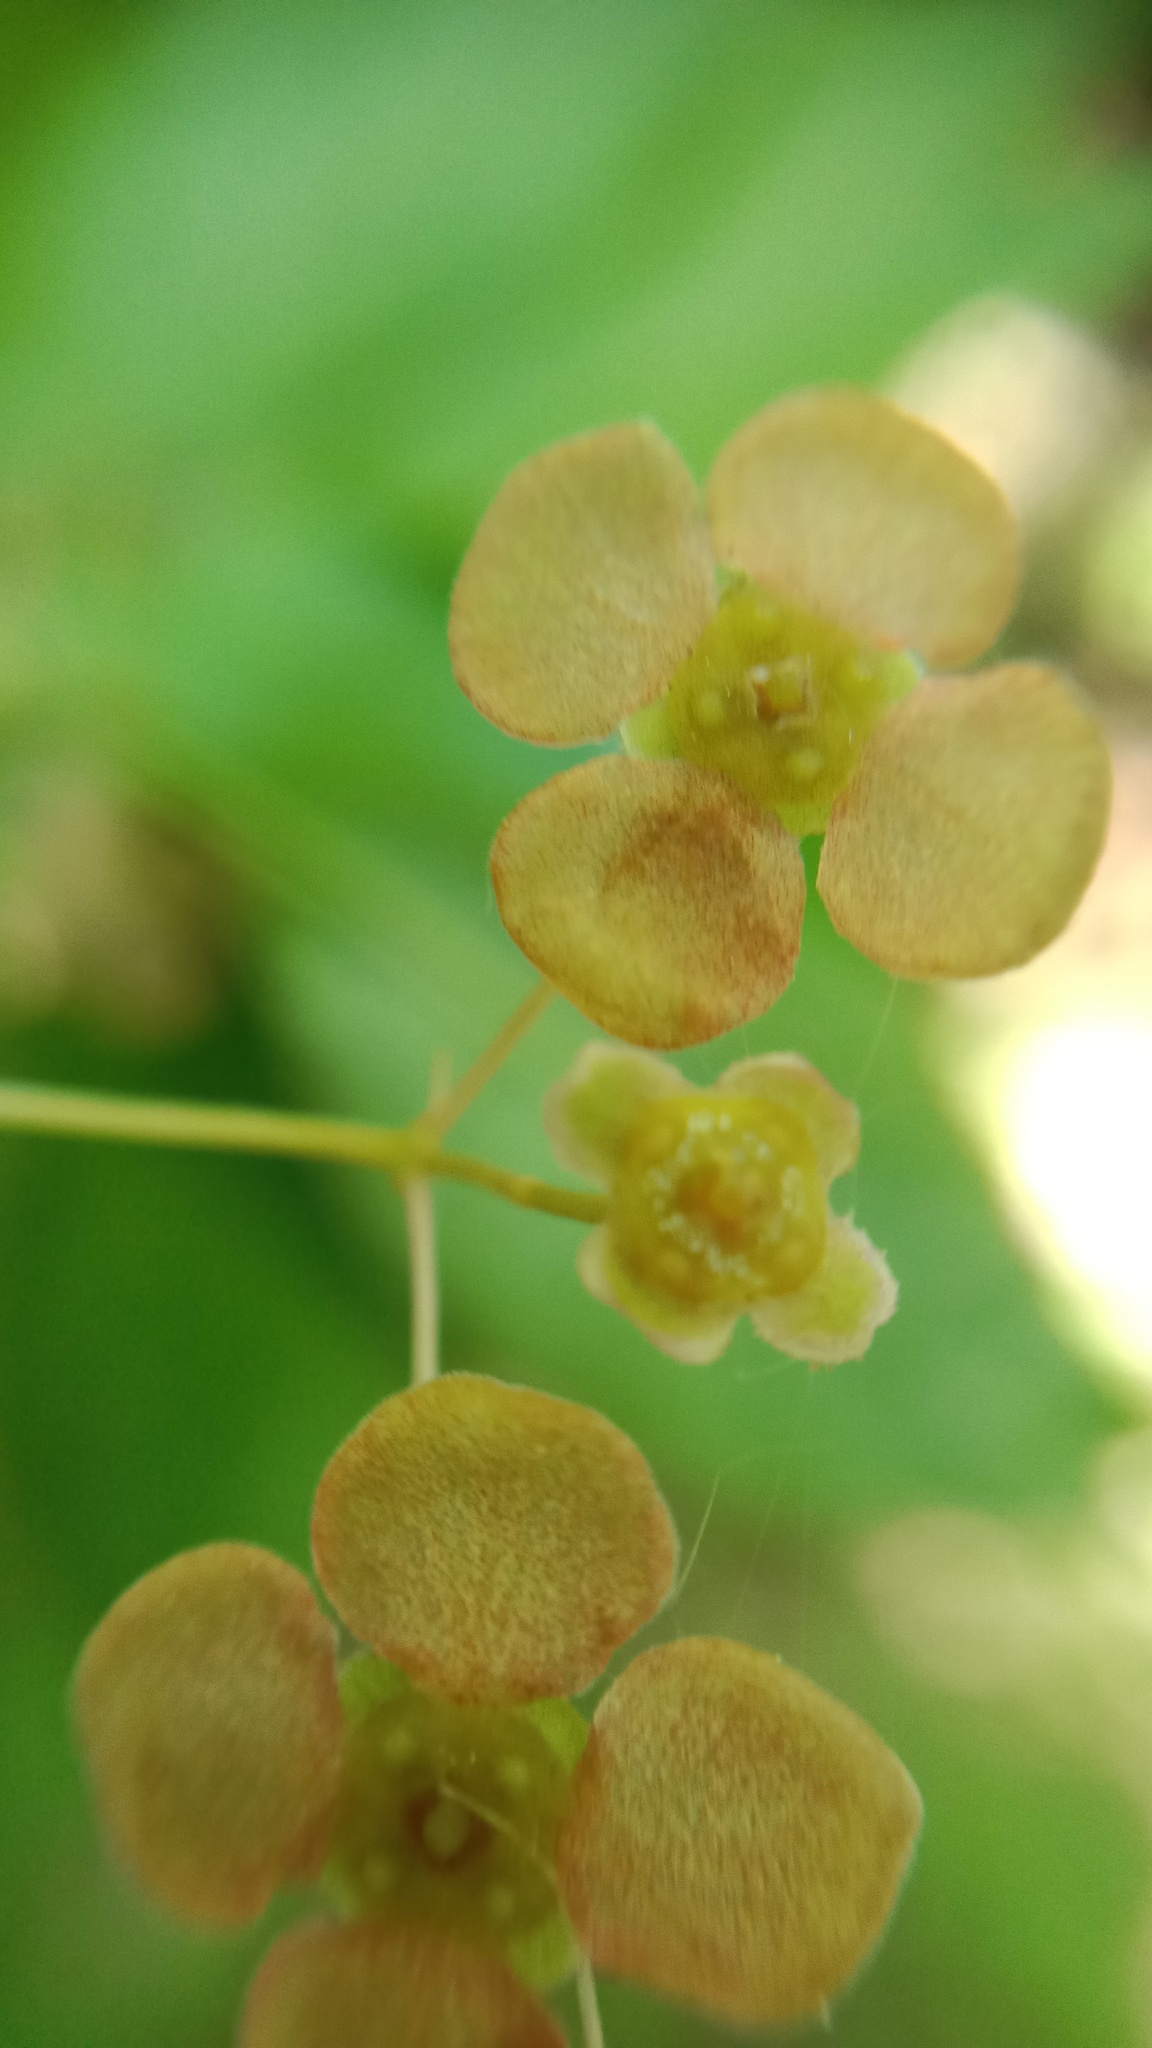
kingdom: Plantae
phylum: Tracheophyta
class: Magnoliopsida
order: Celastrales
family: Celastraceae
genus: Euonymus
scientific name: Euonymus verrucosus
